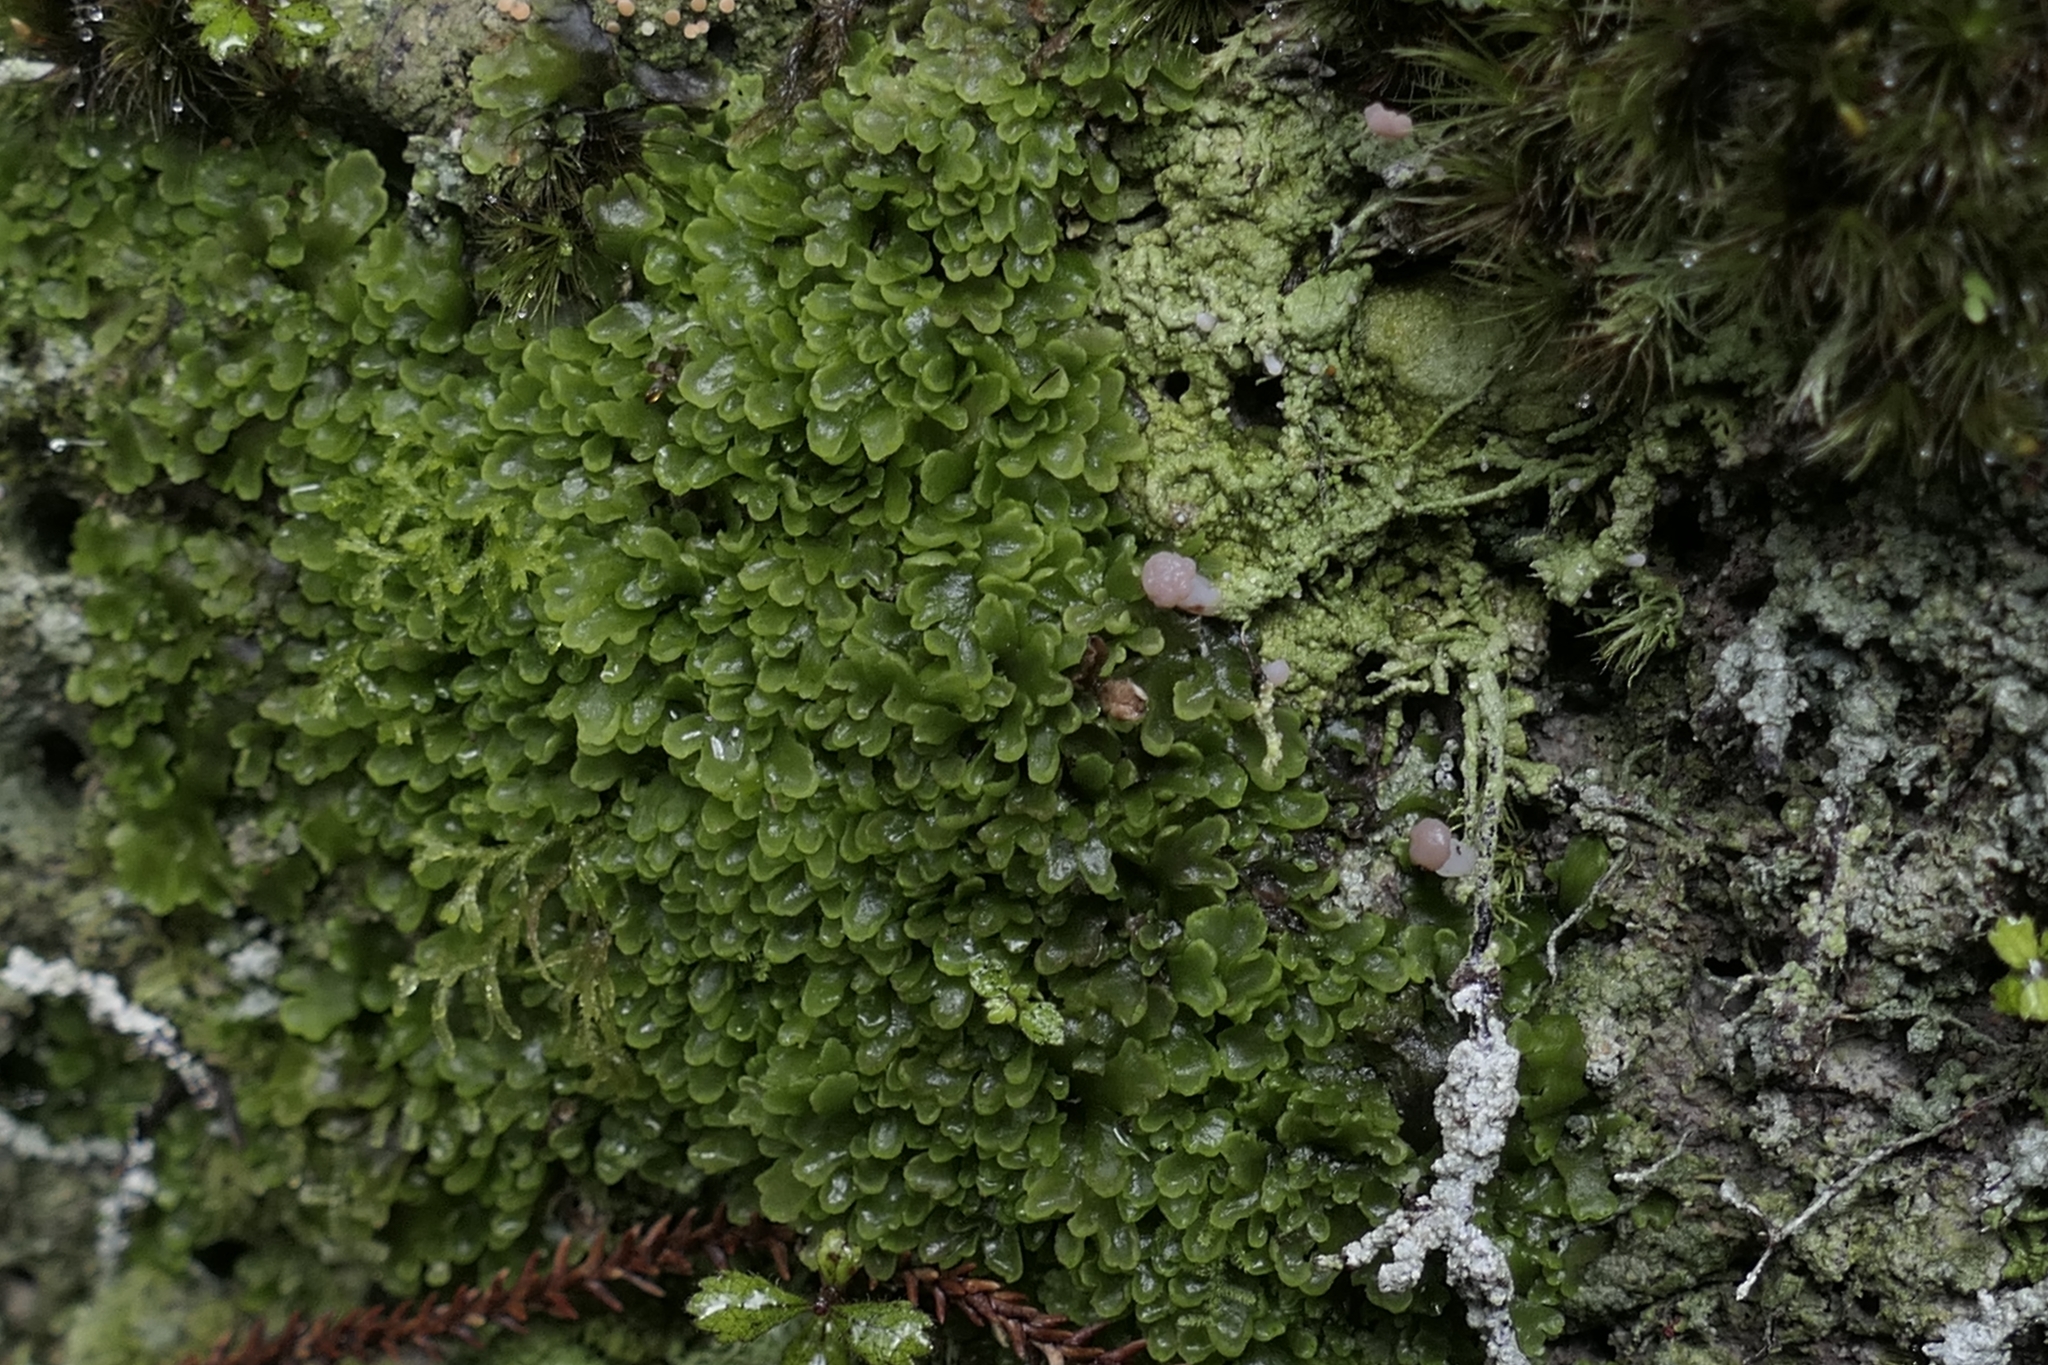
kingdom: Plantae
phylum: Marchantiophyta
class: Jungermanniopsida
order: Metzgeriales
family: Aneuraceae
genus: Riccardia
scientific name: Riccardia cochleata
